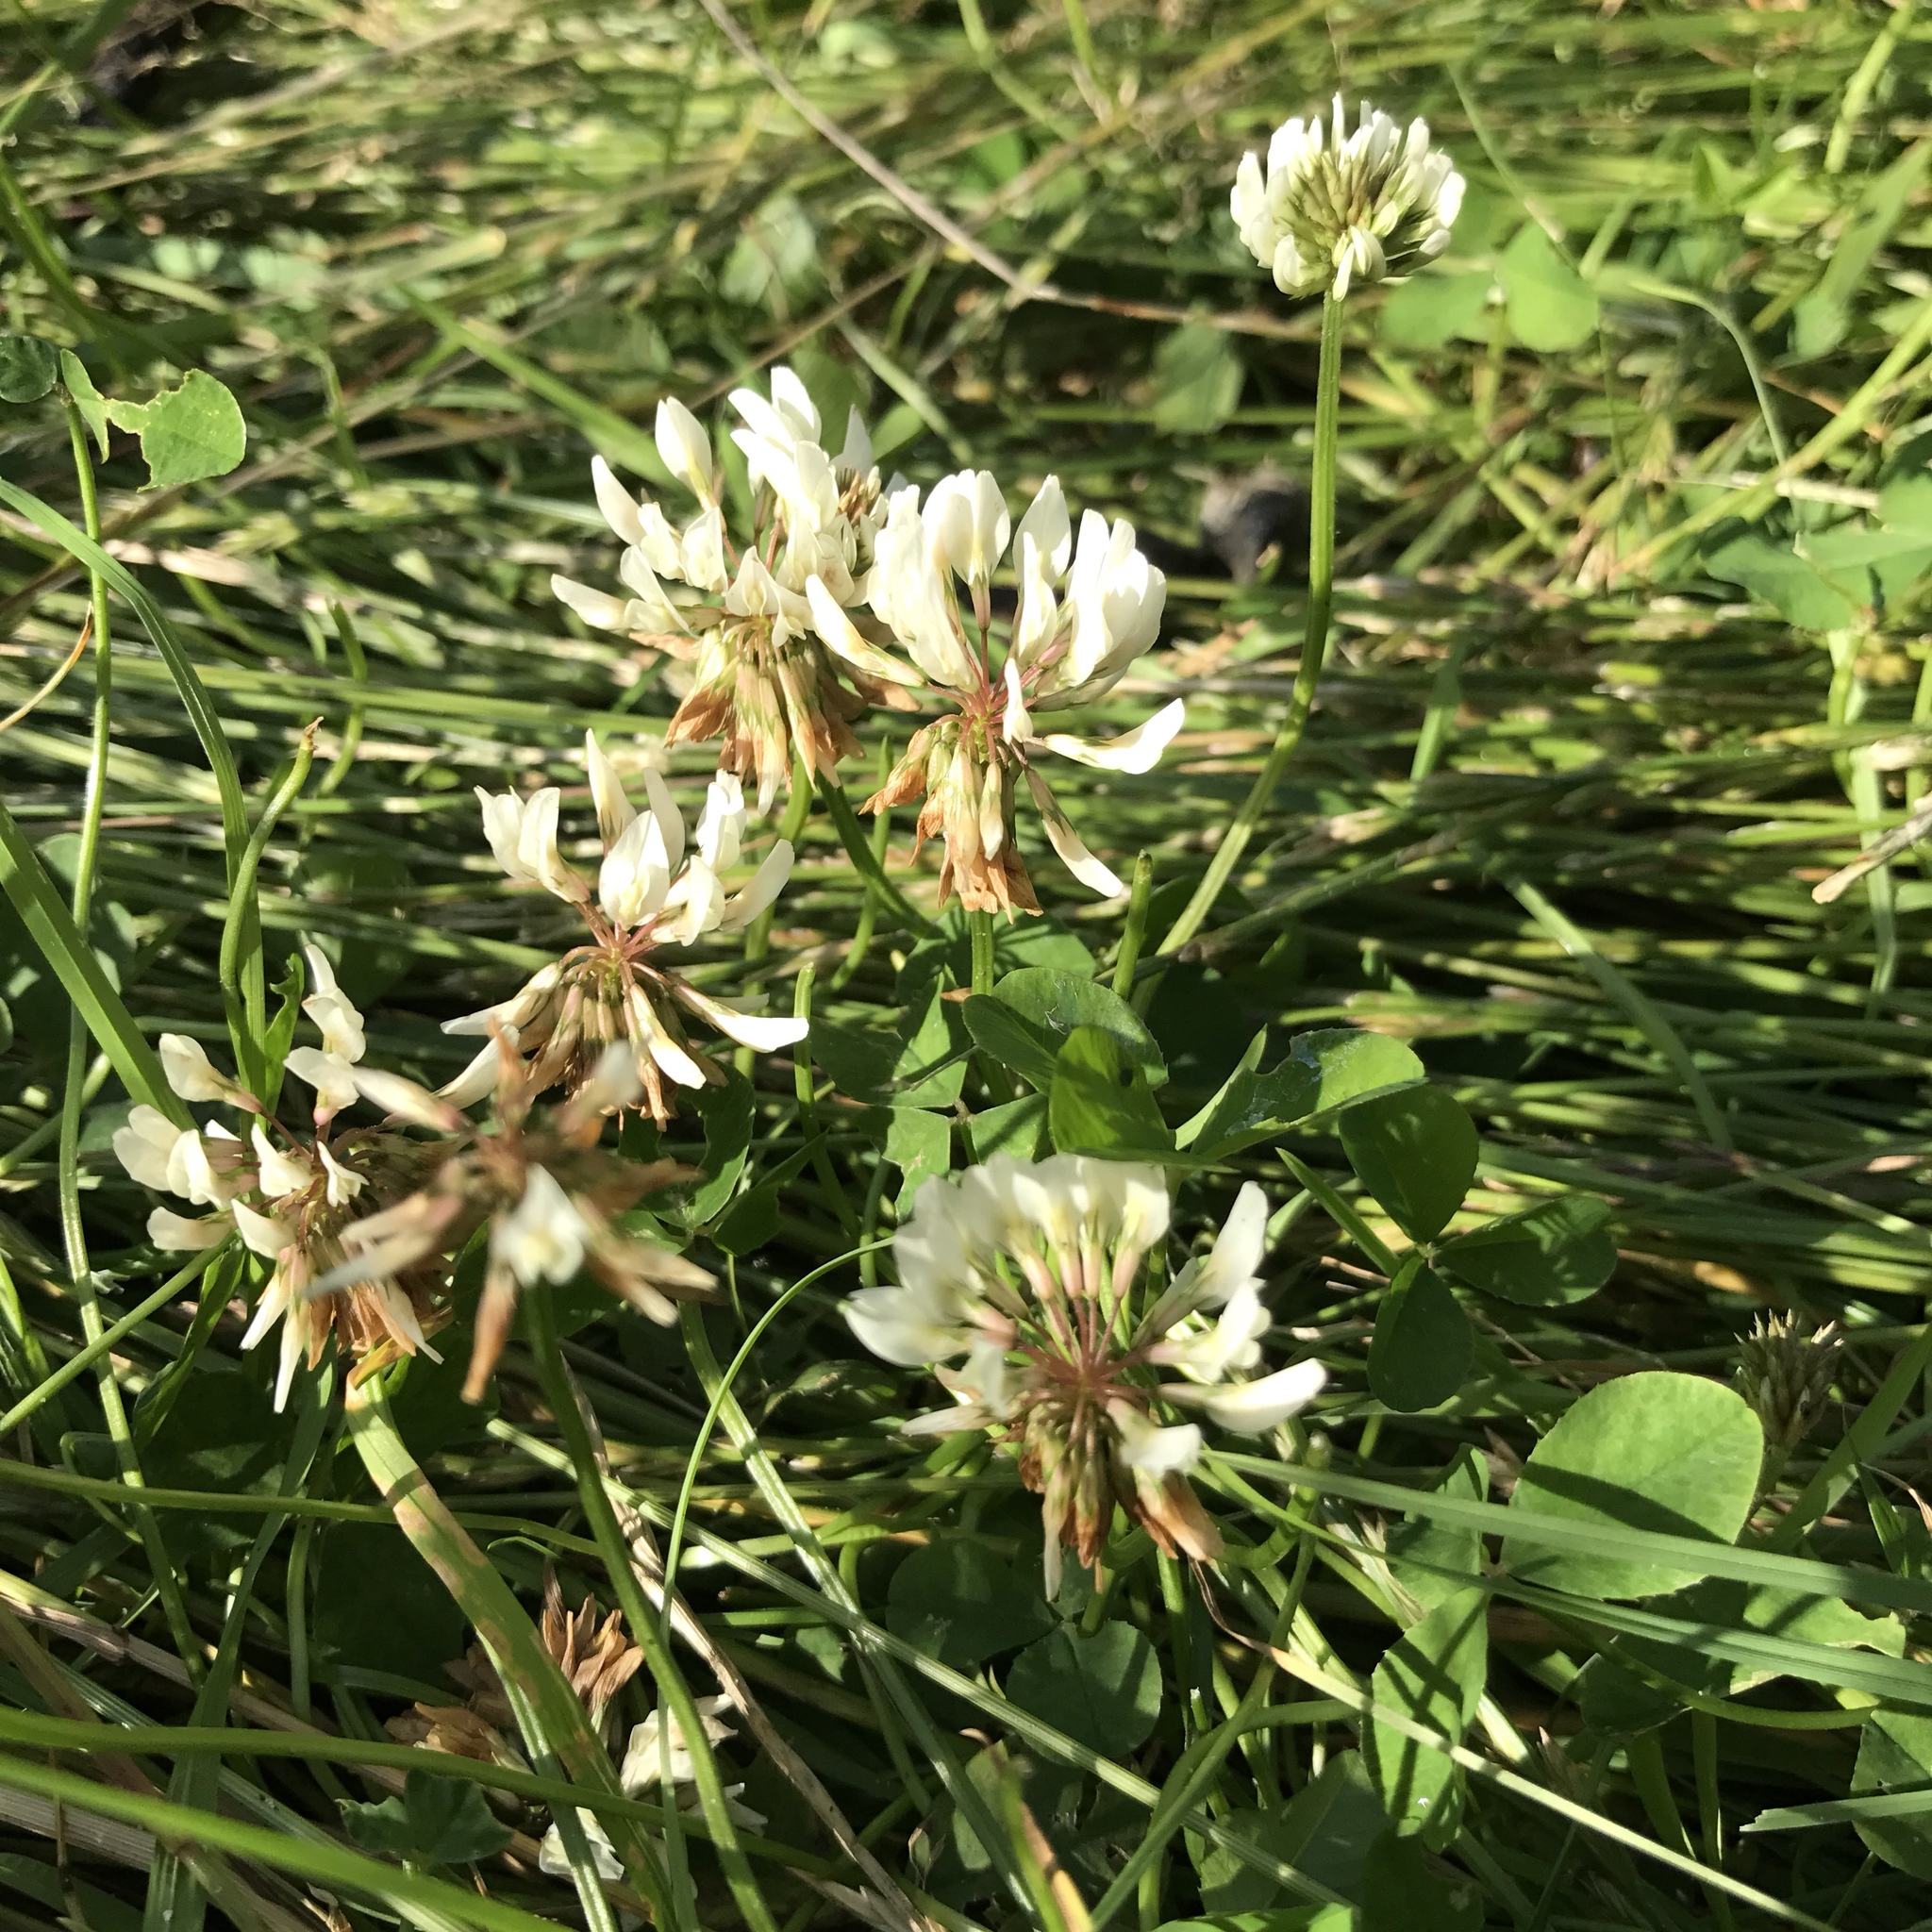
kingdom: Plantae
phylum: Tracheophyta
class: Magnoliopsida
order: Fabales
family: Fabaceae
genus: Trifolium
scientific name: Trifolium repens
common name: White clover
